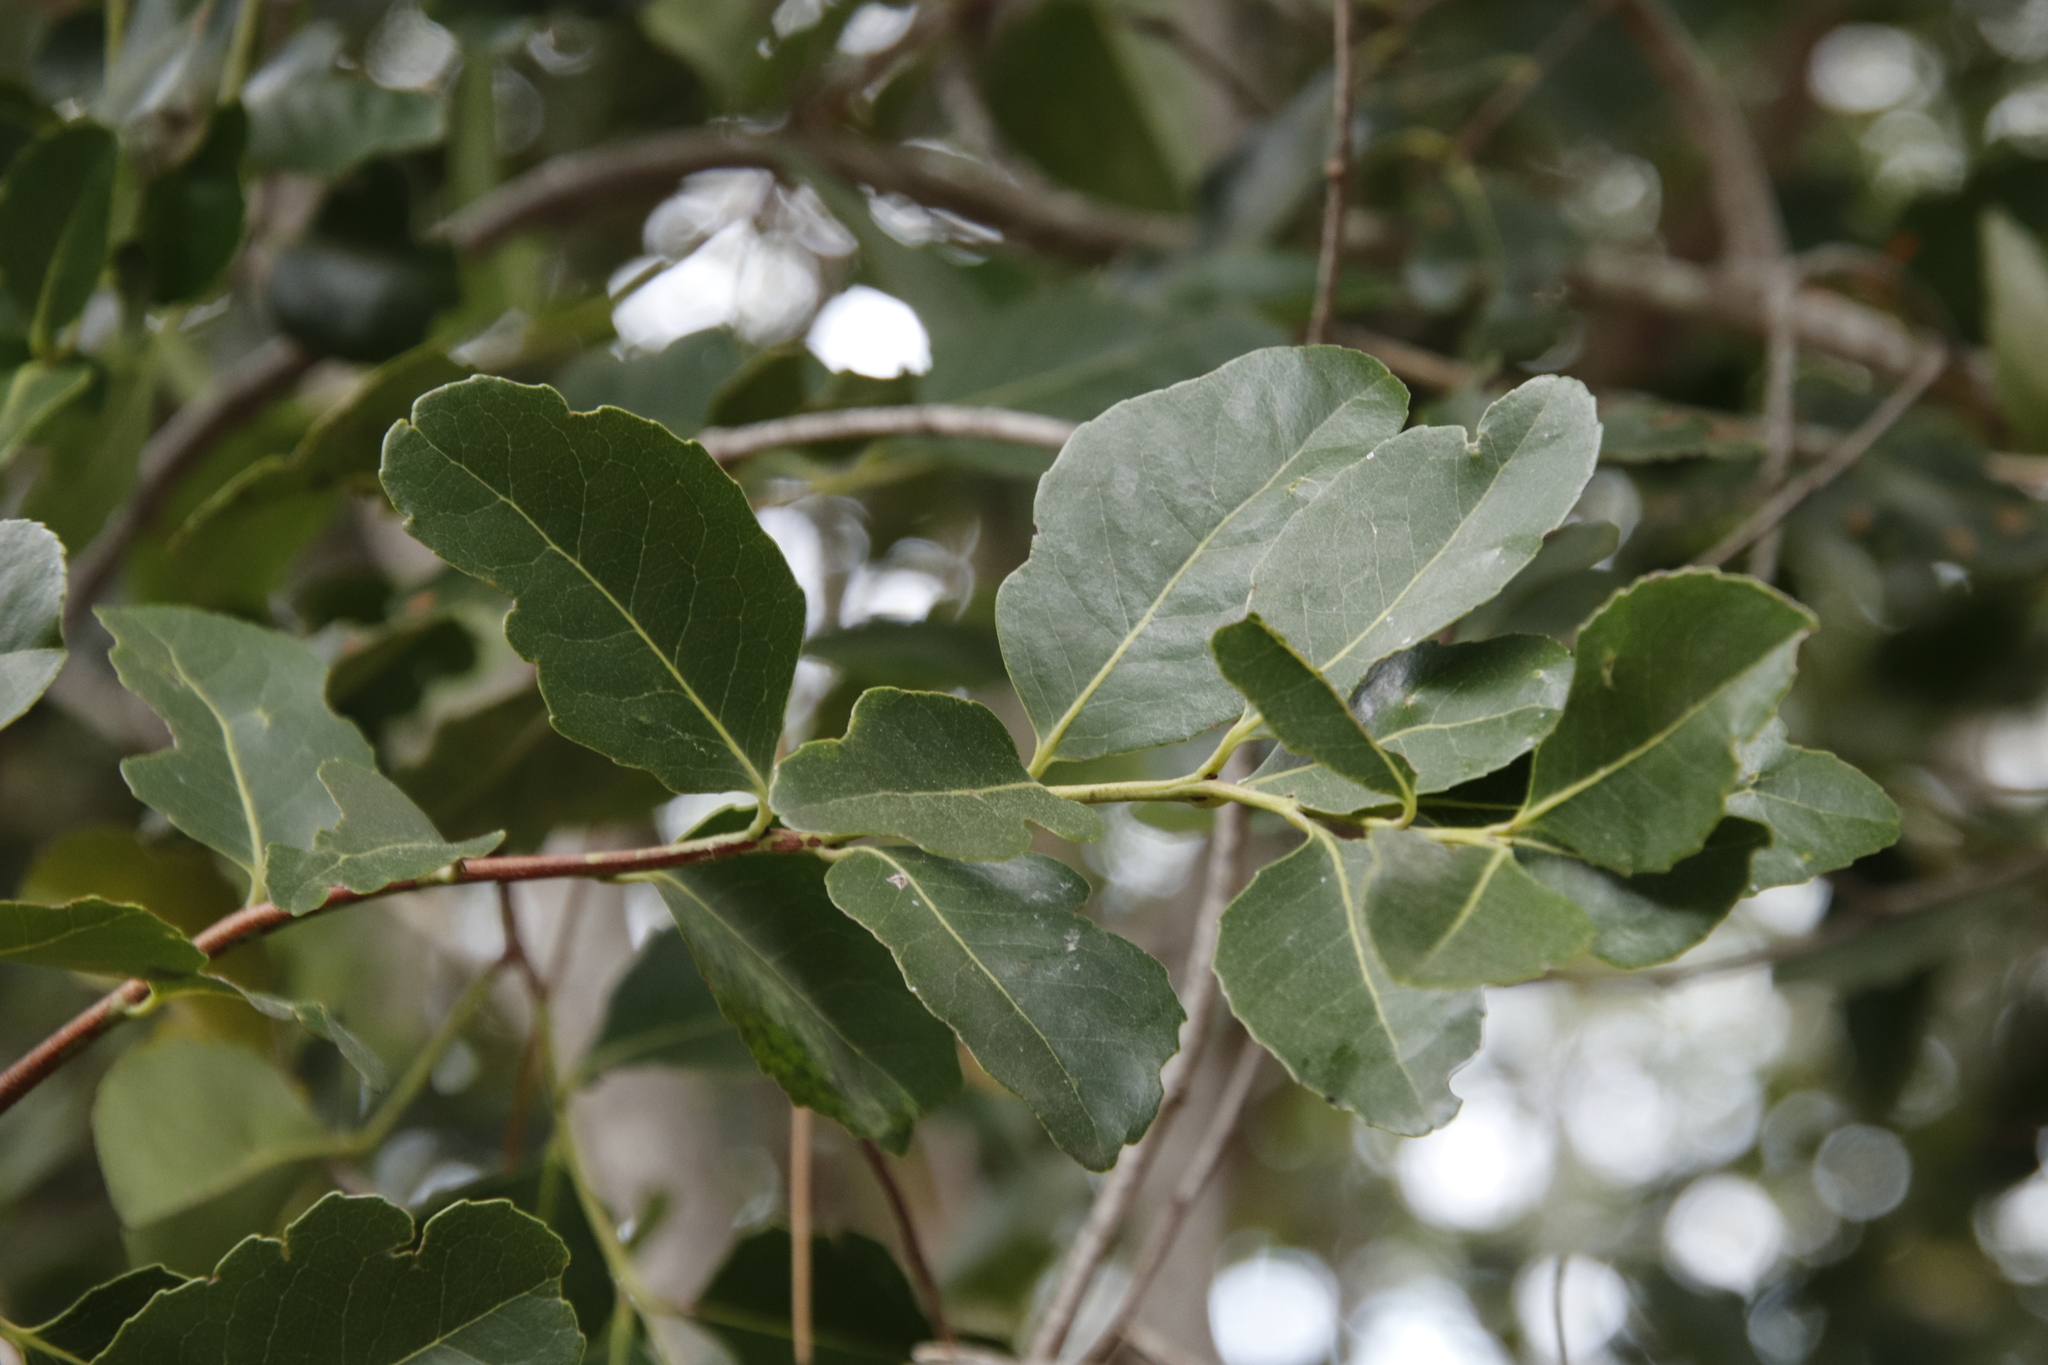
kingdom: Plantae
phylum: Tracheophyta
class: Magnoliopsida
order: Celastrales
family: Celastraceae
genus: Cassine
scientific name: Cassine peragua
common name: Cape saffron
